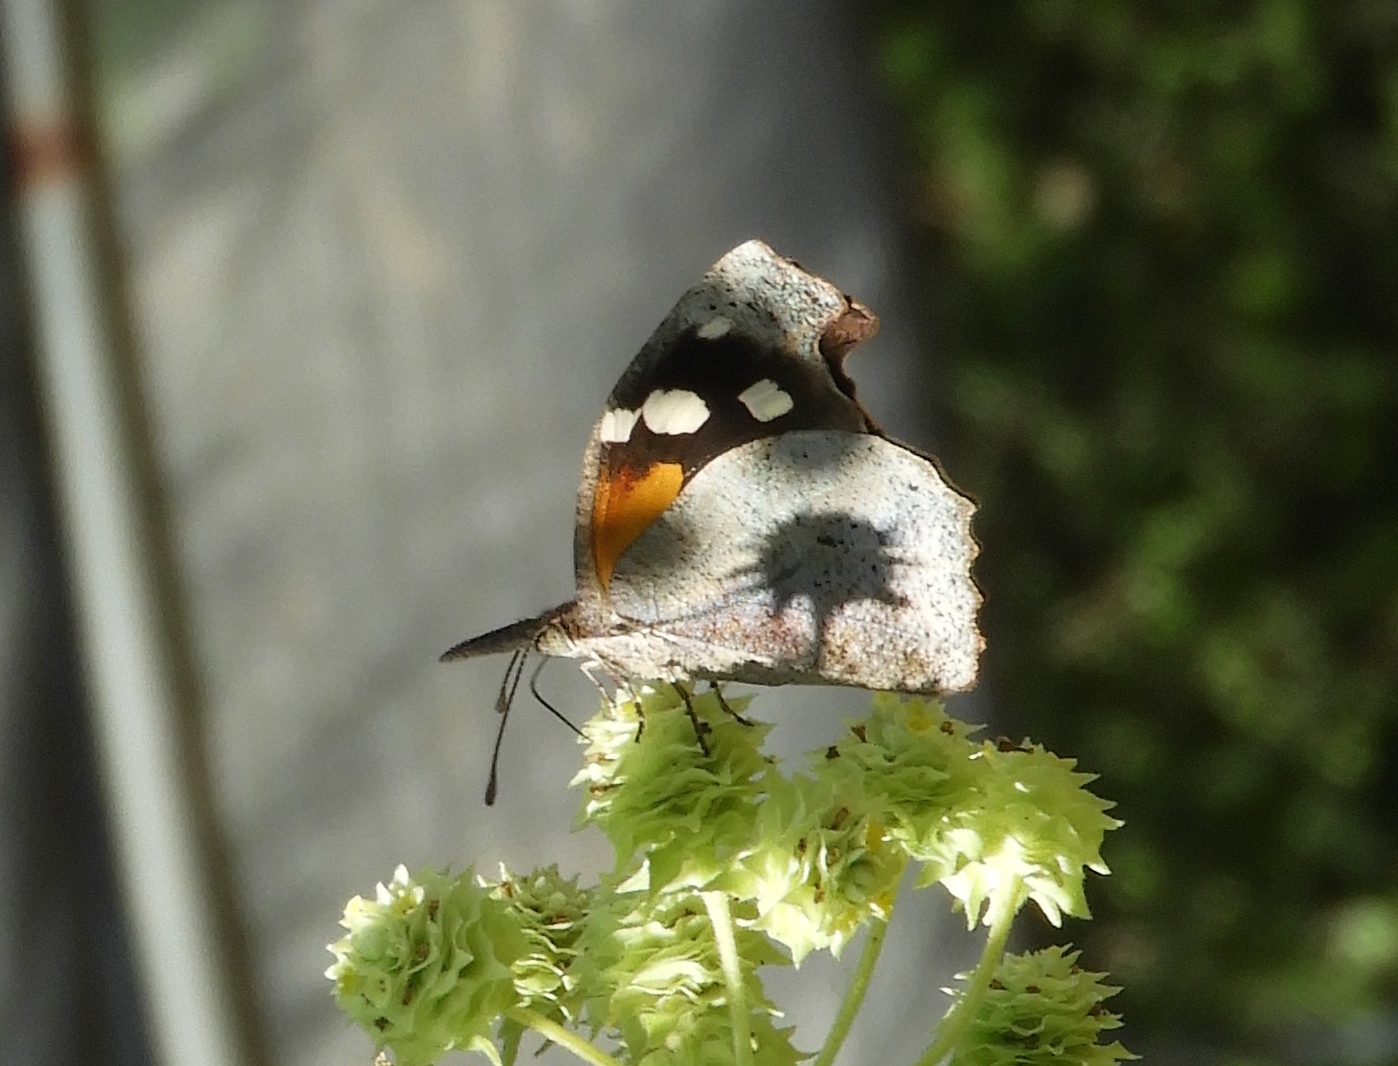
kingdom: Animalia
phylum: Arthropoda
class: Insecta
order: Lepidoptera
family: Nymphalidae
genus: Libytheana
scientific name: Libytheana carinenta
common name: American snout
